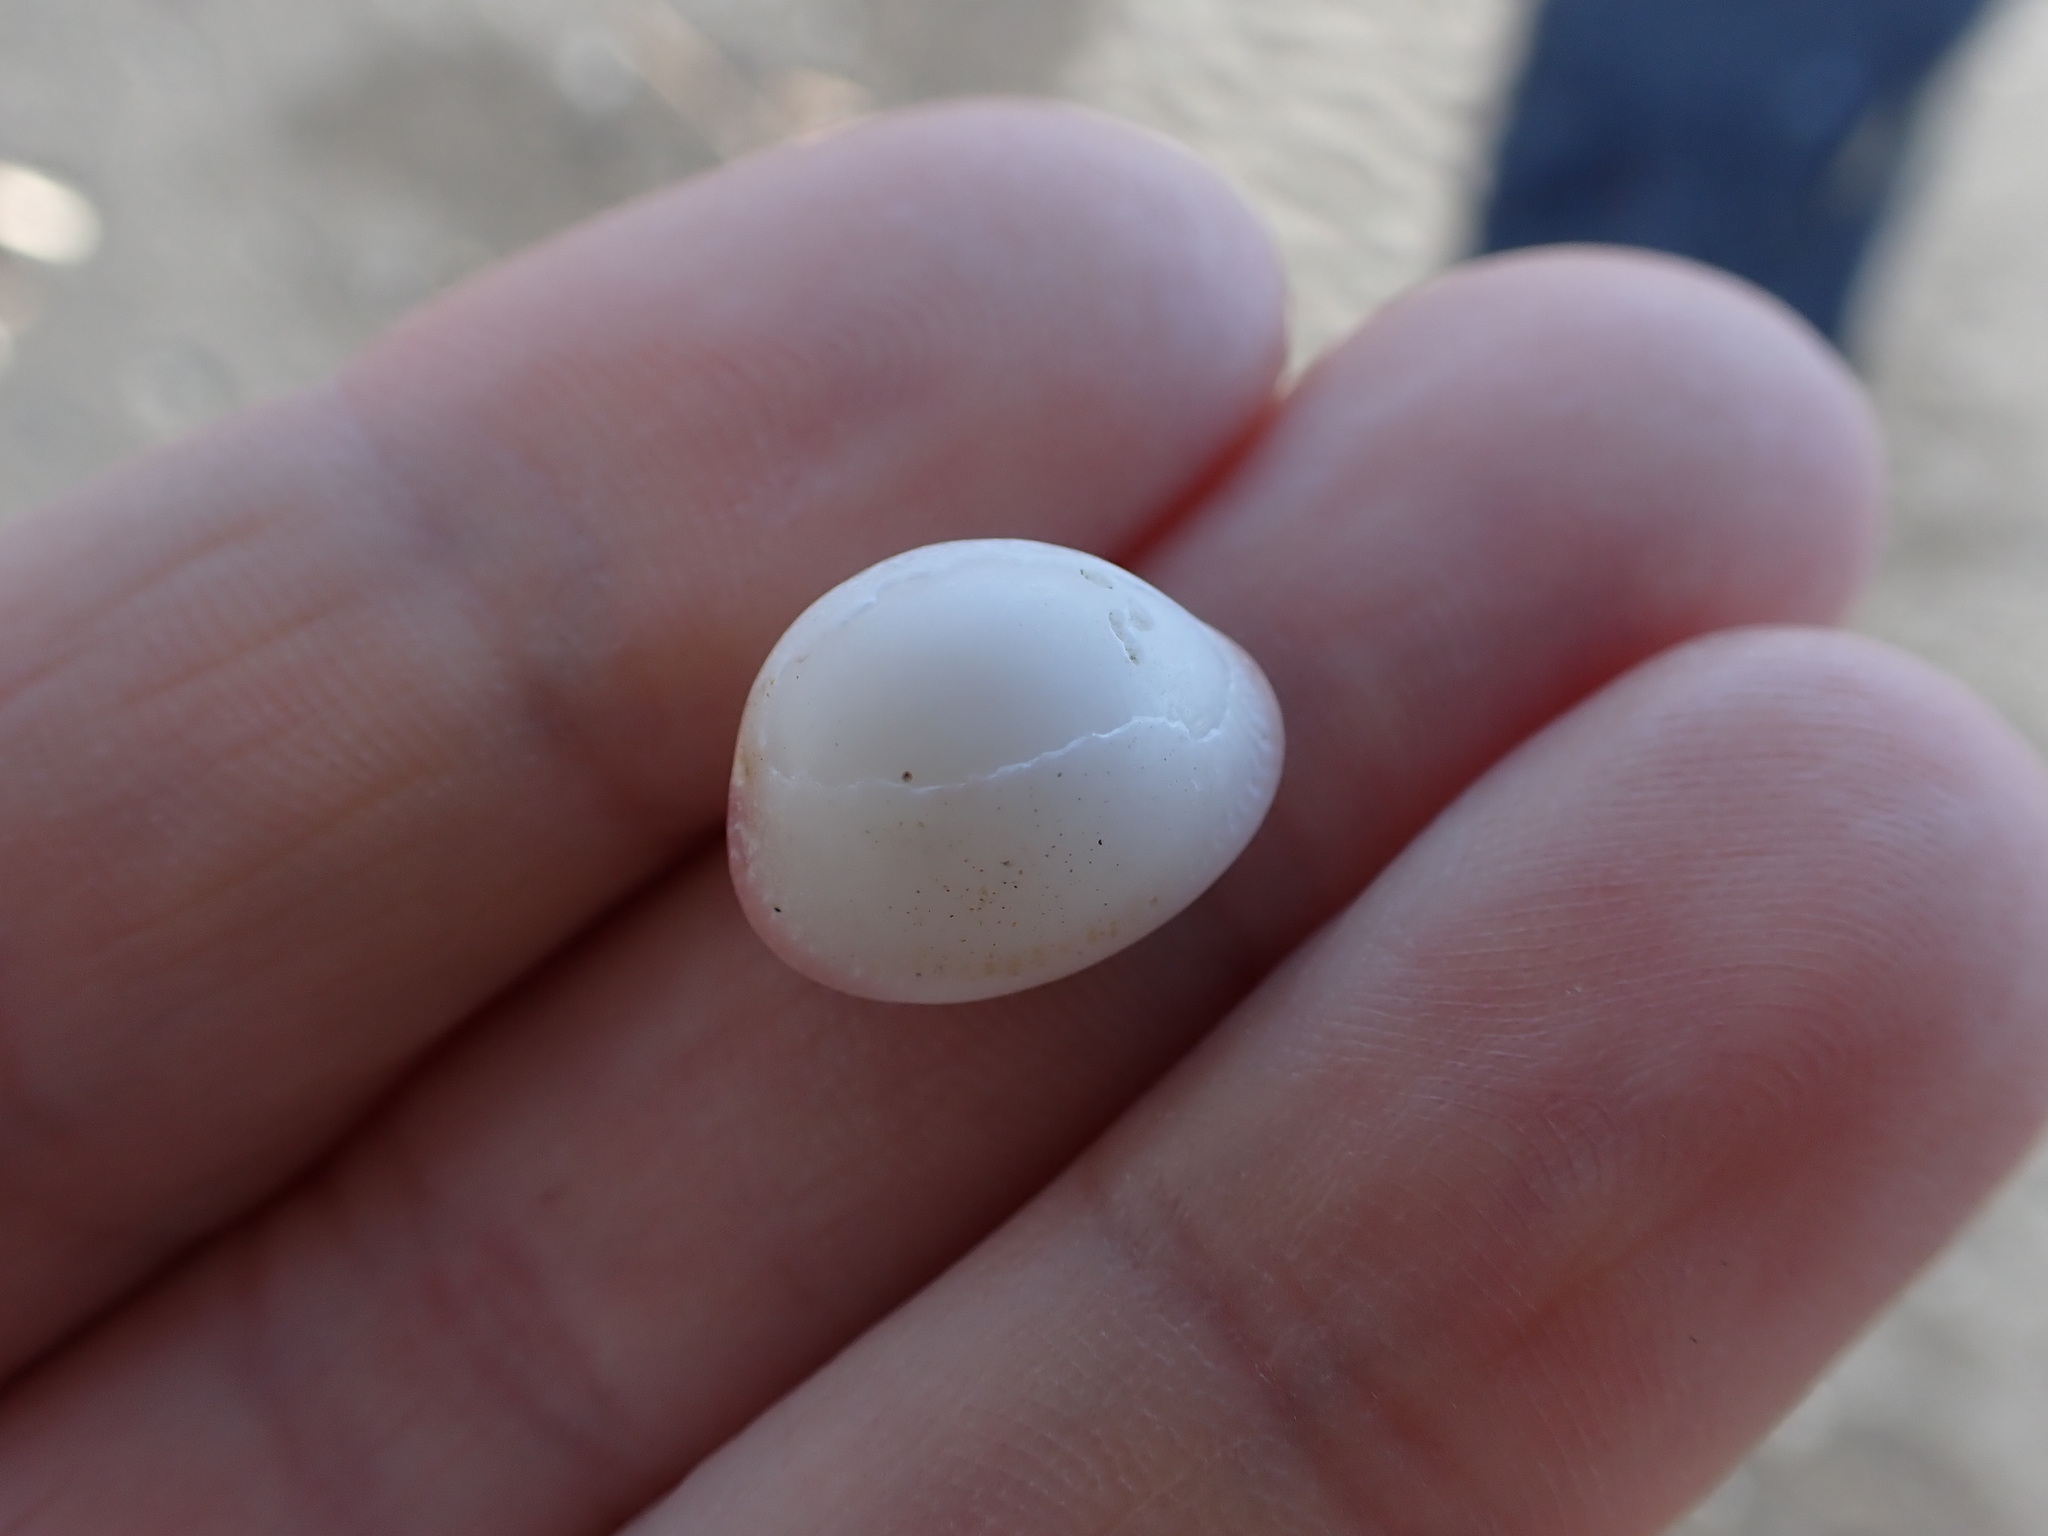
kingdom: Animalia
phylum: Mollusca
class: Gastropoda
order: Littorinimorpha
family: Triviidae
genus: Ellatrivia
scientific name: Ellatrivia merces
